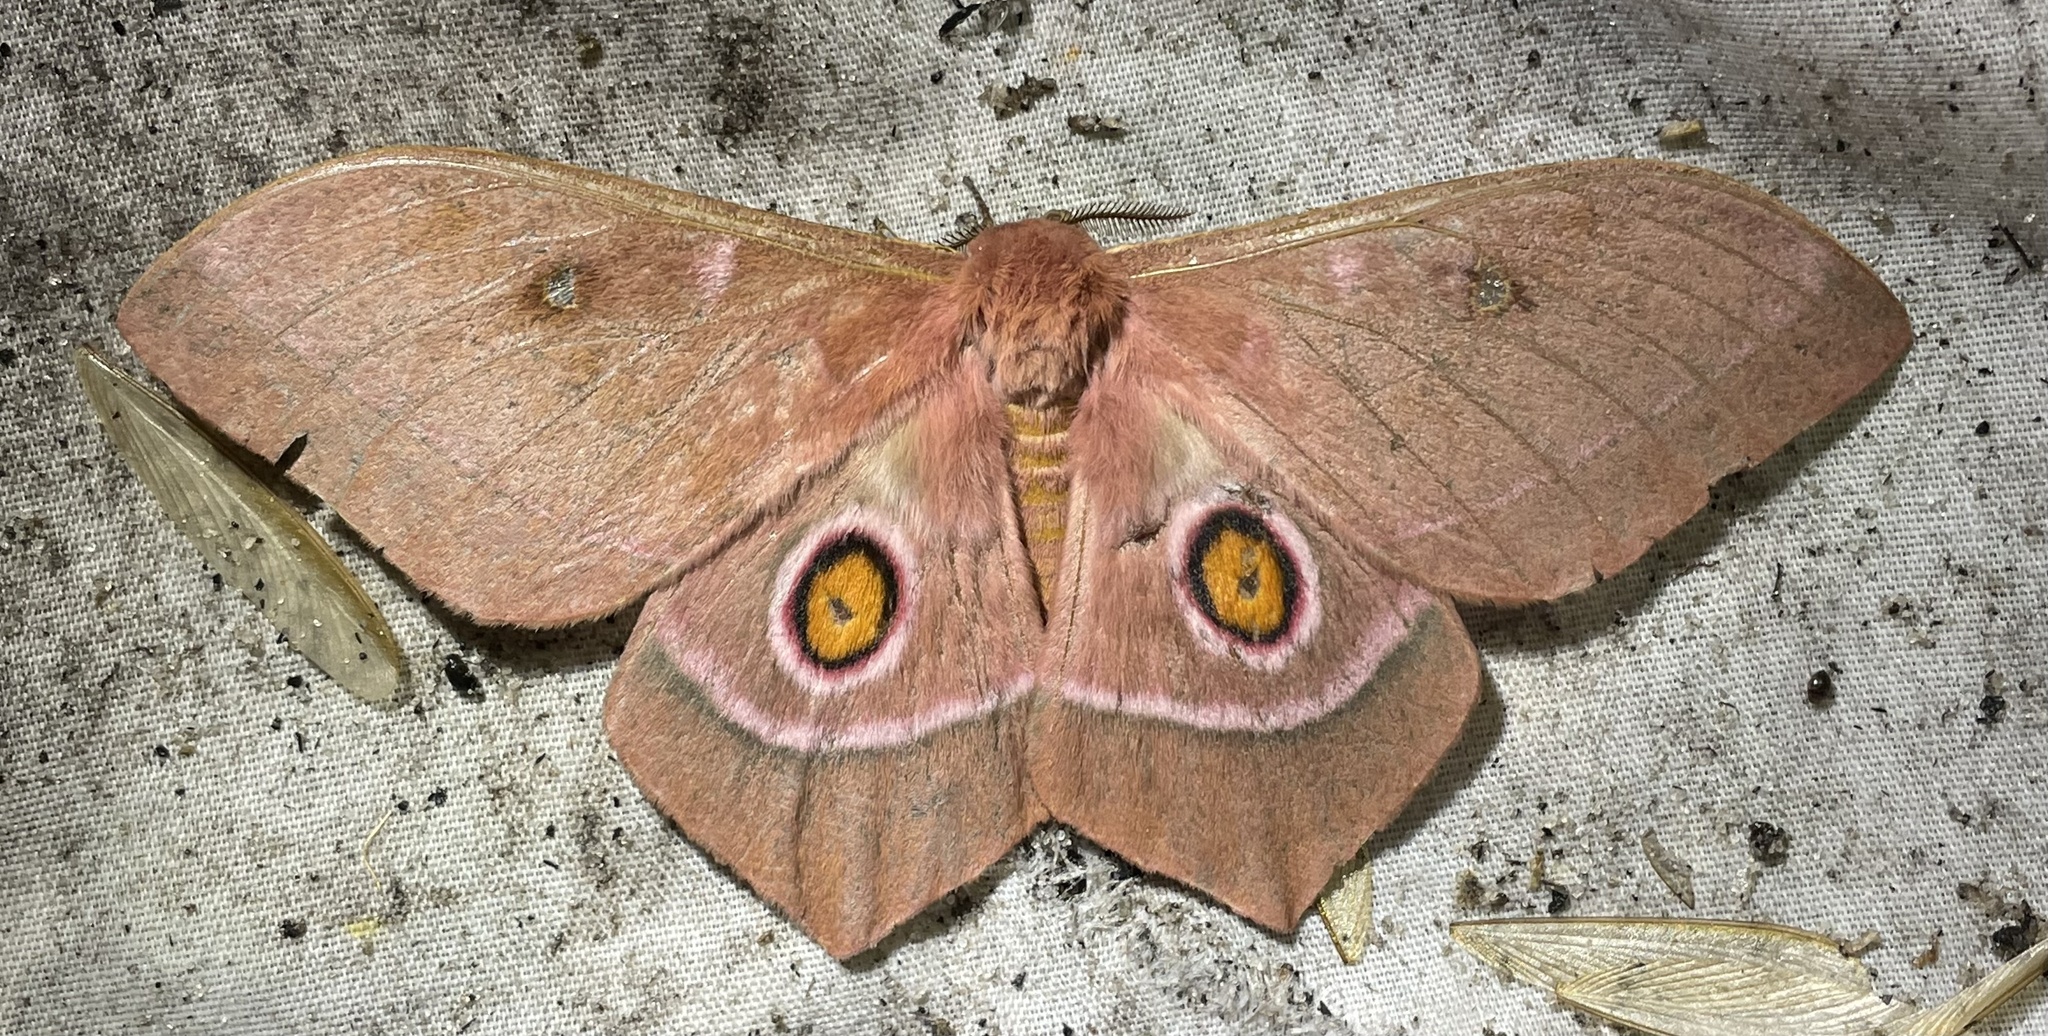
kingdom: Animalia
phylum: Arthropoda
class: Insecta
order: Lepidoptera
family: Saturniidae
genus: Imbrasia
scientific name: Imbrasia ertli
